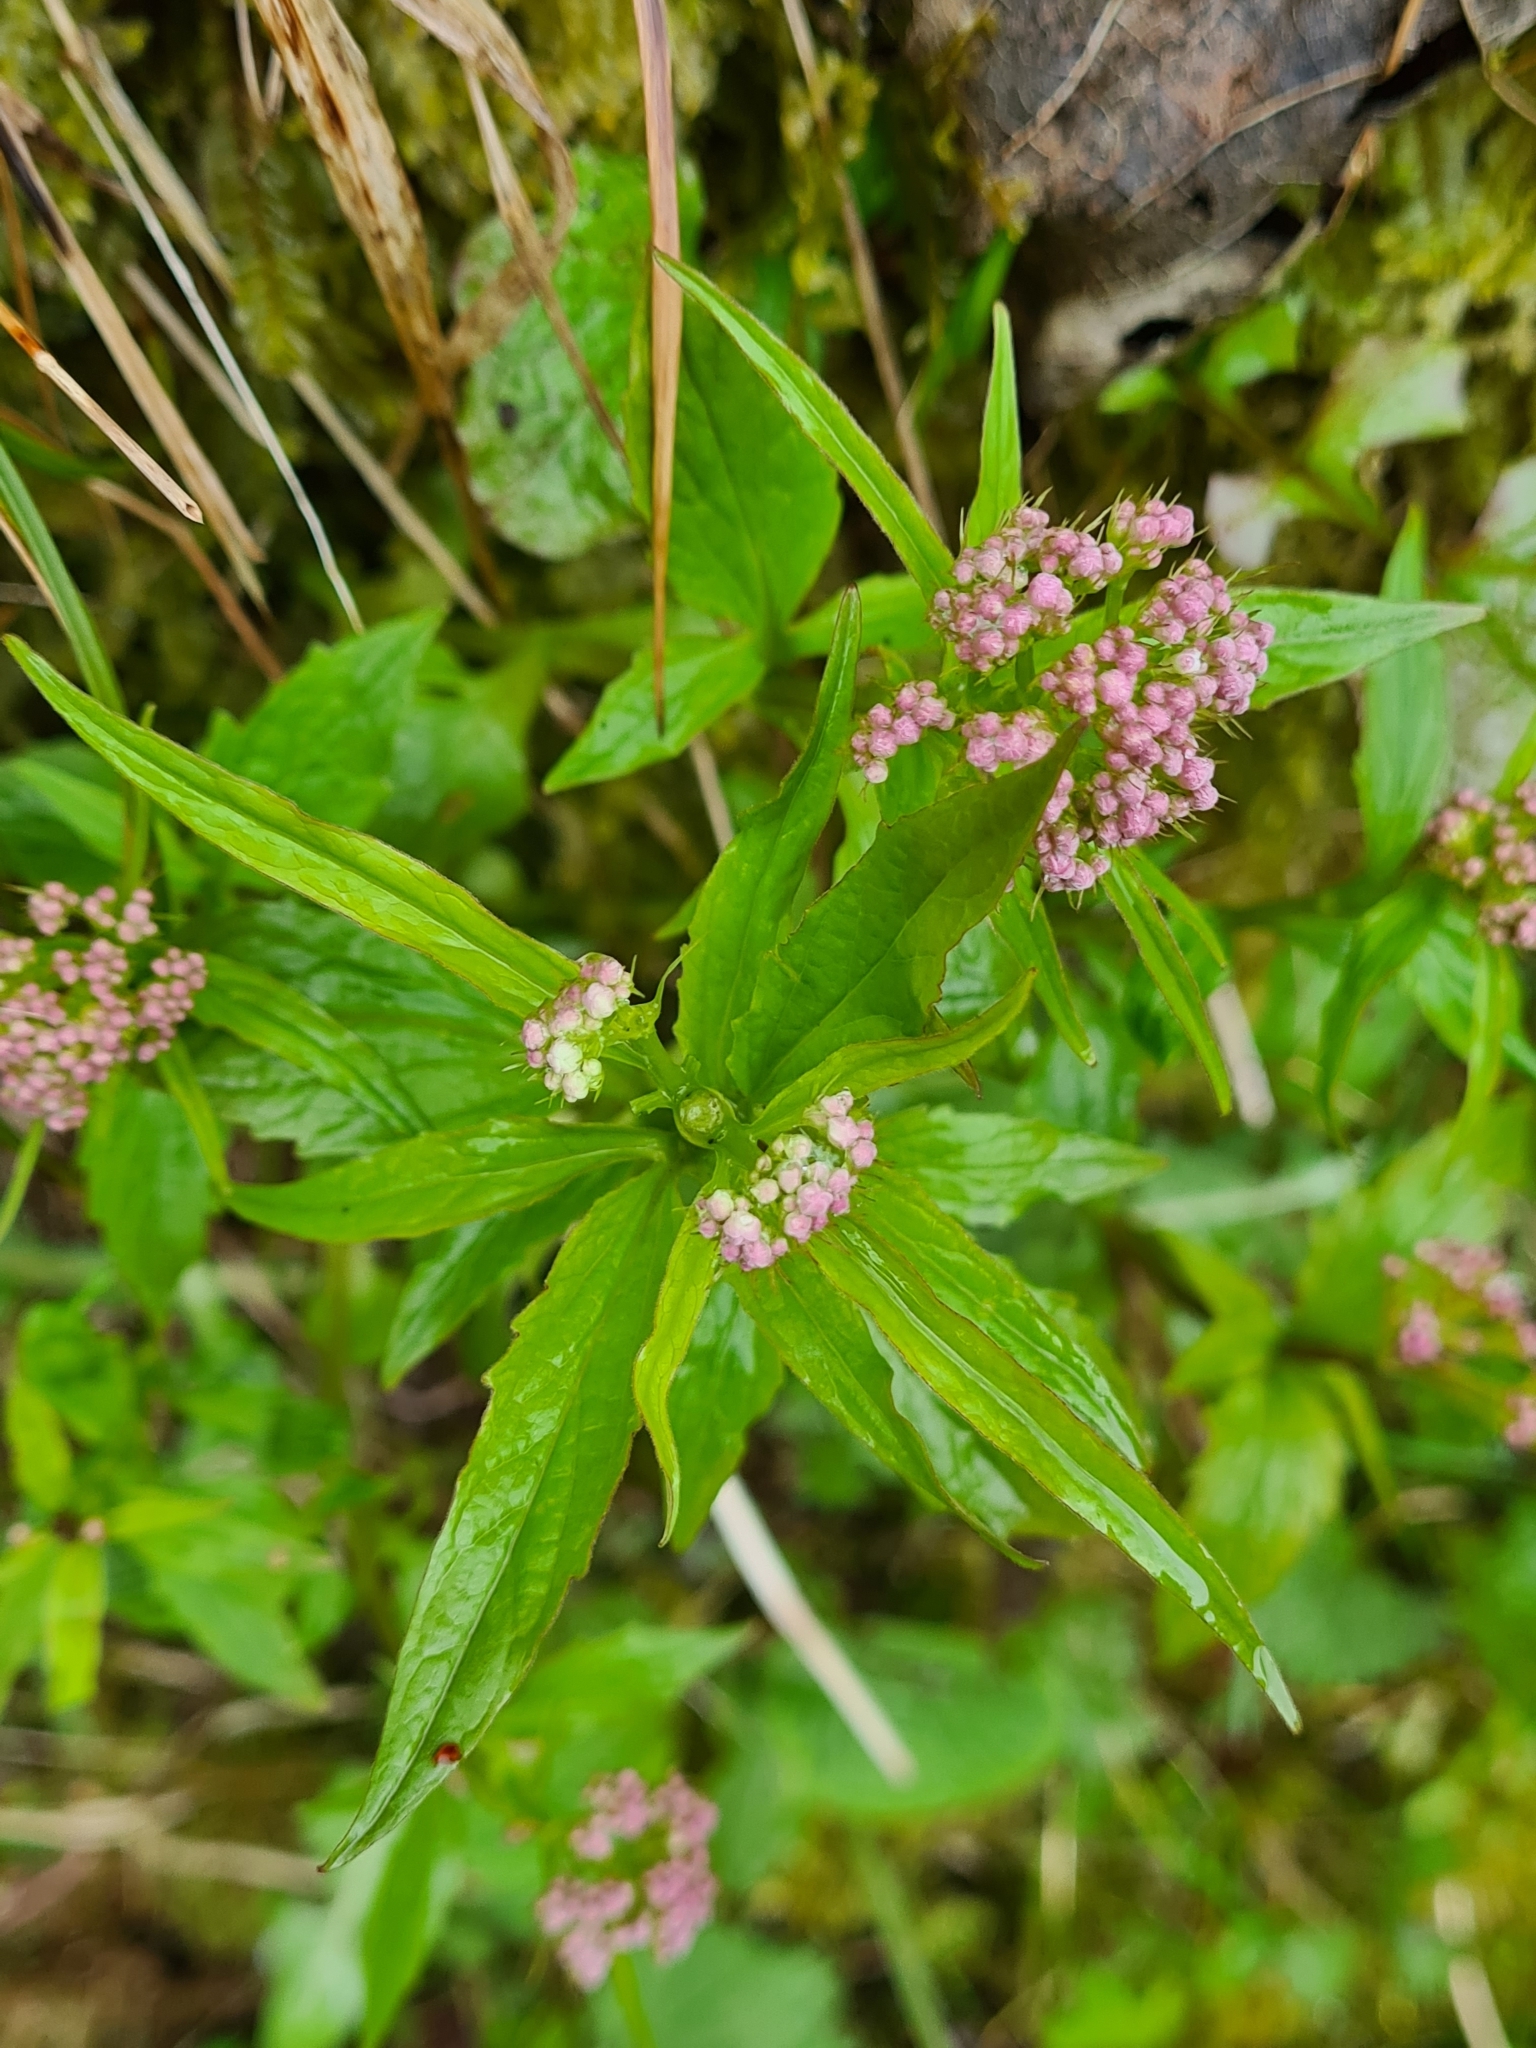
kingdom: Plantae
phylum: Tracheophyta
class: Magnoliopsida
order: Dipsacales
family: Caprifoliaceae
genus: Valeriana
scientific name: Valeriana tripteris
